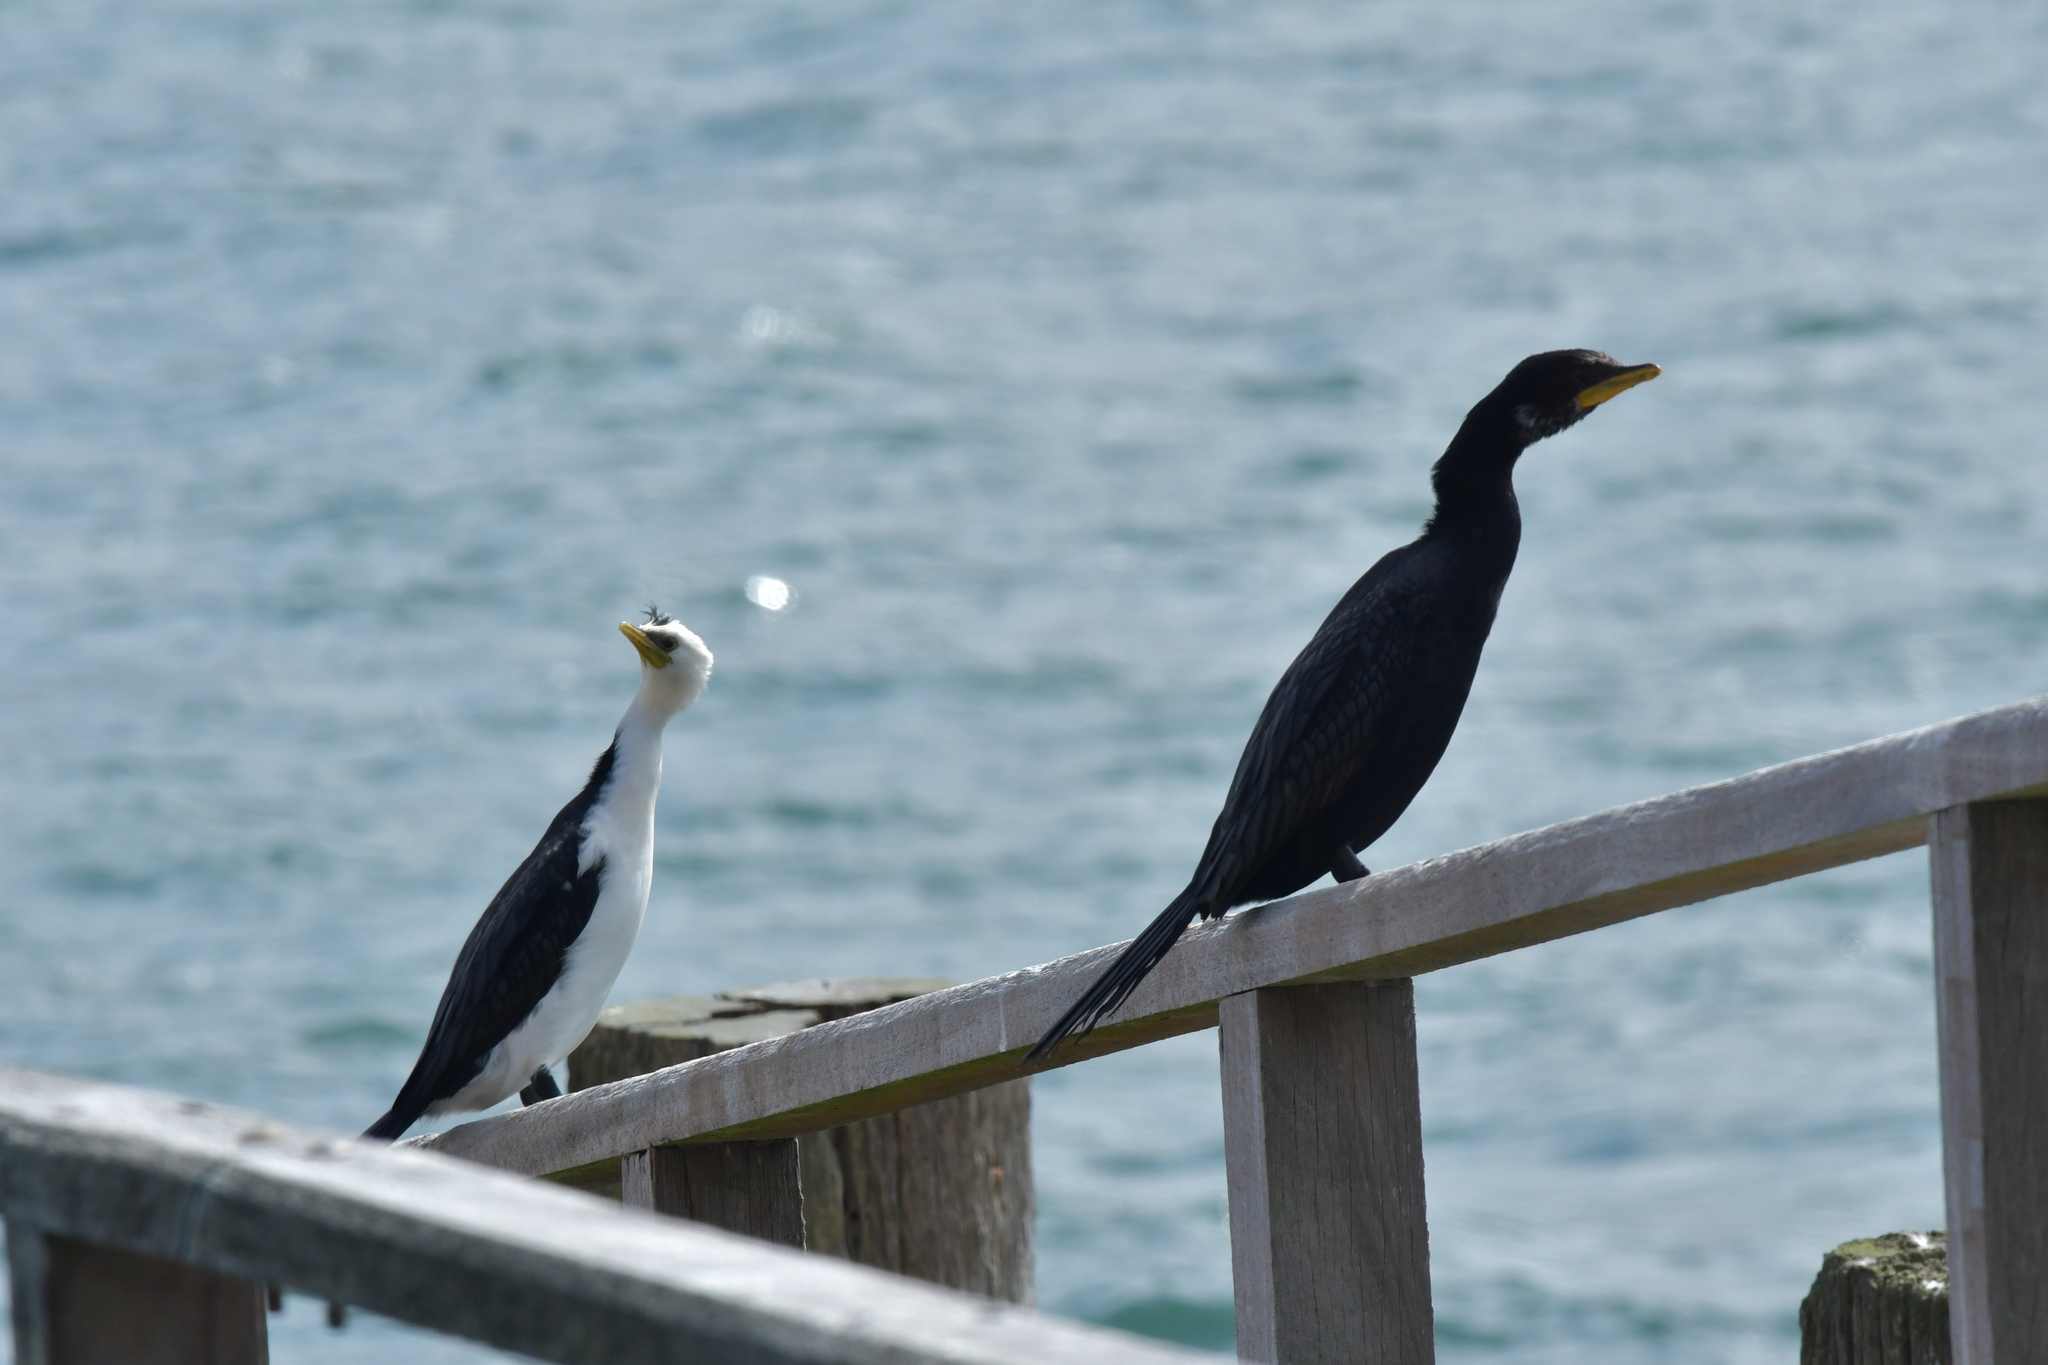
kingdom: Animalia
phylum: Chordata
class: Aves
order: Suliformes
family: Phalacrocoracidae
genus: Microcarbo
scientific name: Microcarbo melanoleucos
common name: Little pied cormorant
